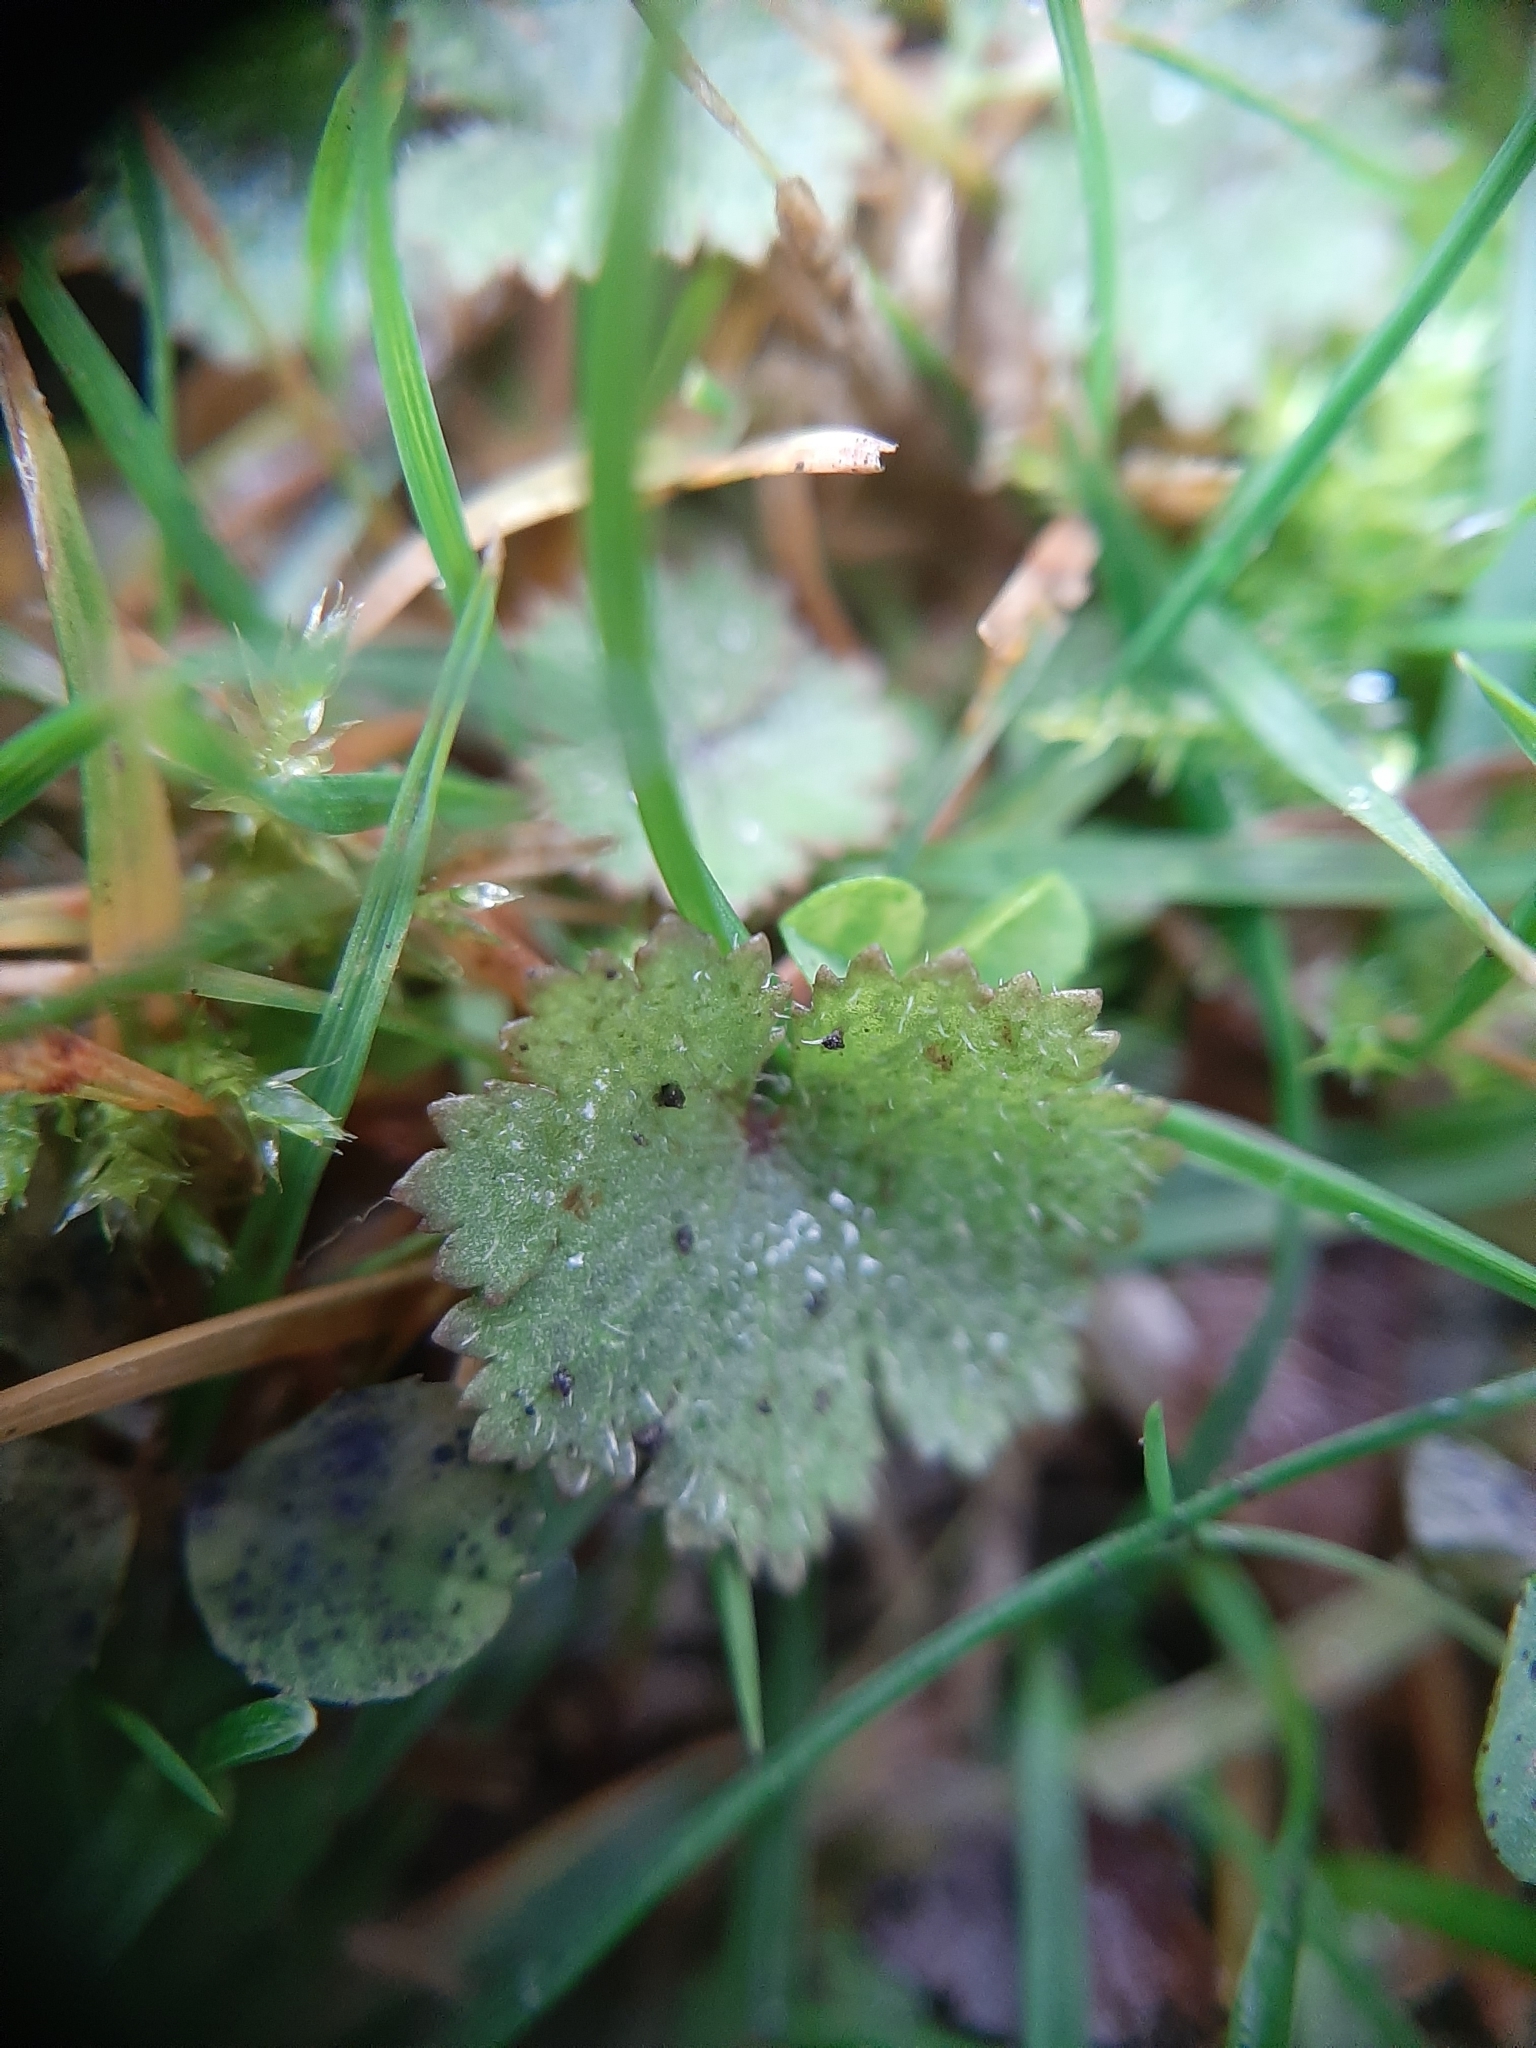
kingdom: Plantae
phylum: Tracheophyta
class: Magnoliopsida
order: Apiales
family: Araliaceae
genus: Hydrocotyle
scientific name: Hydrocotyle moschata
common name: Hairy pennywort
